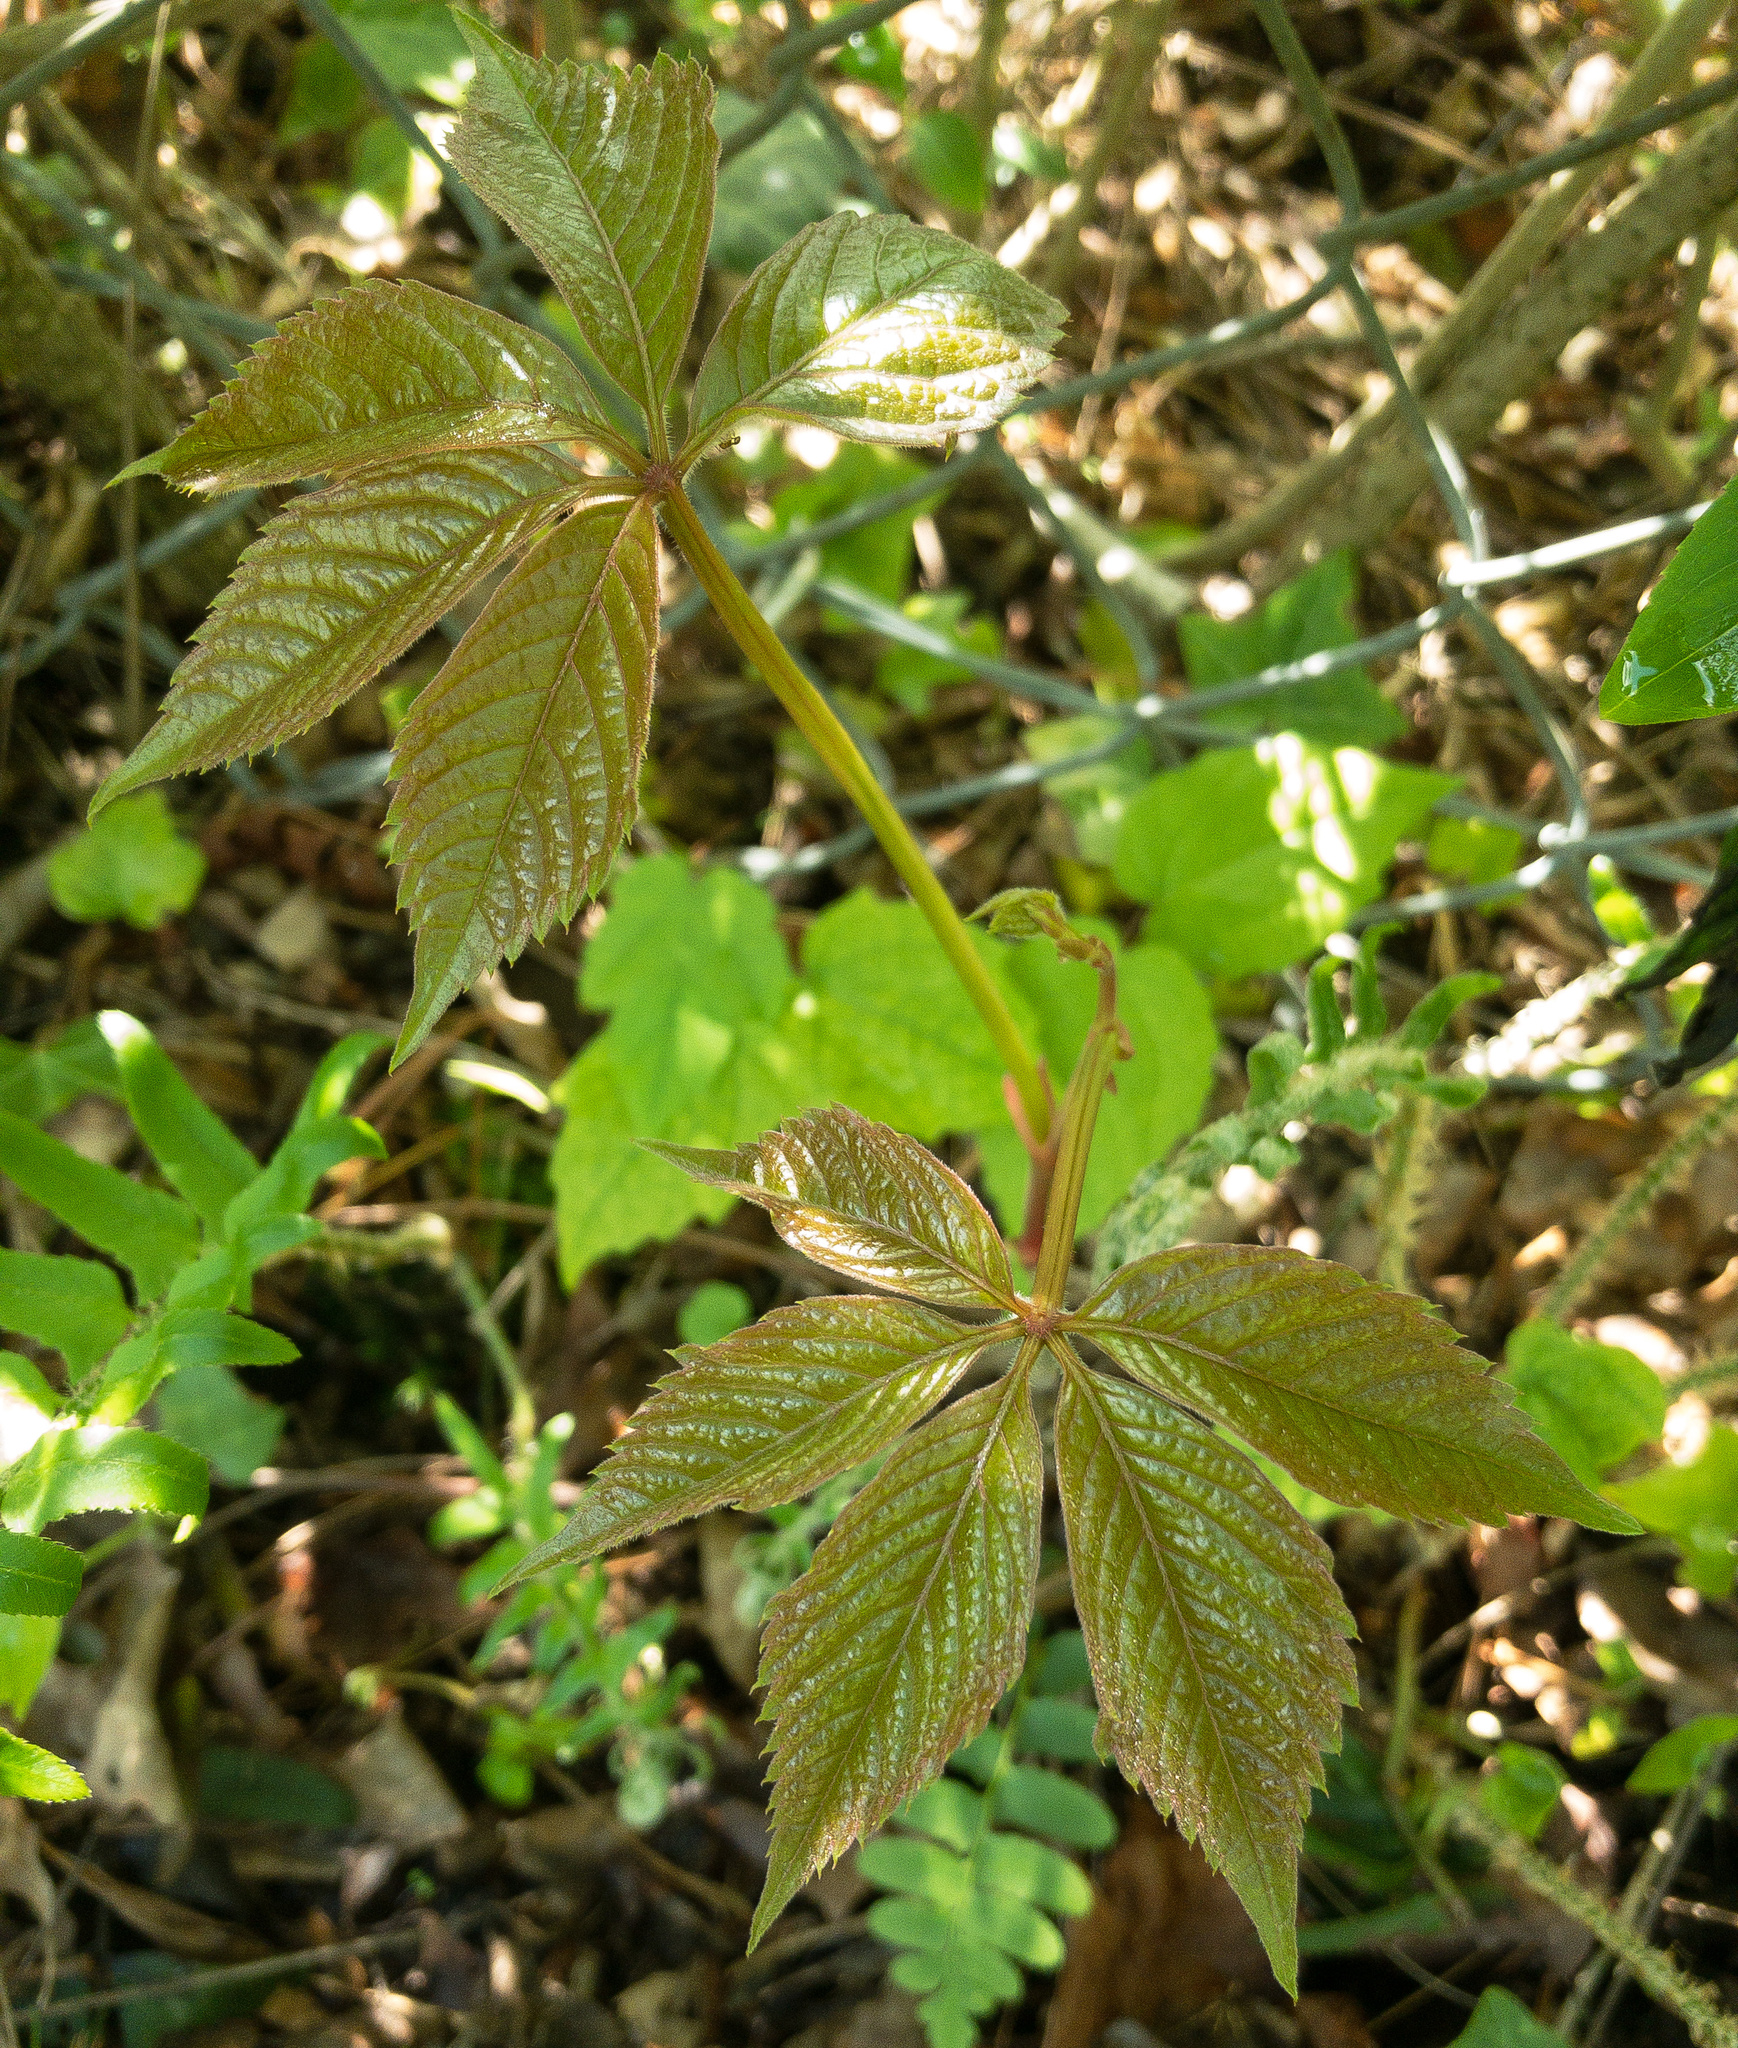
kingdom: Plantae
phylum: Tracheophyta
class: Magnoliopsida
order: Vitales
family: Vitaceae
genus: Parthenocissus
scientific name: Parthenocissus quinquefolia
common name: Virginia-creeper
